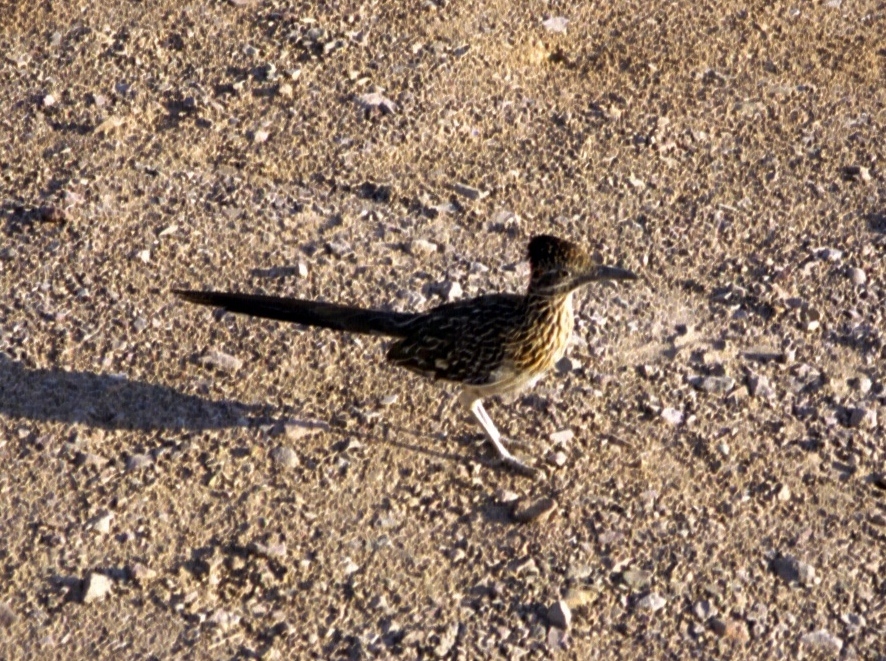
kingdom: Animalia
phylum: Chordata
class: Aves
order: Cuculiformes
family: Cuculidae
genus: Geococcyx
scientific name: Geococcyx californianus
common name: Greater roadrunner
